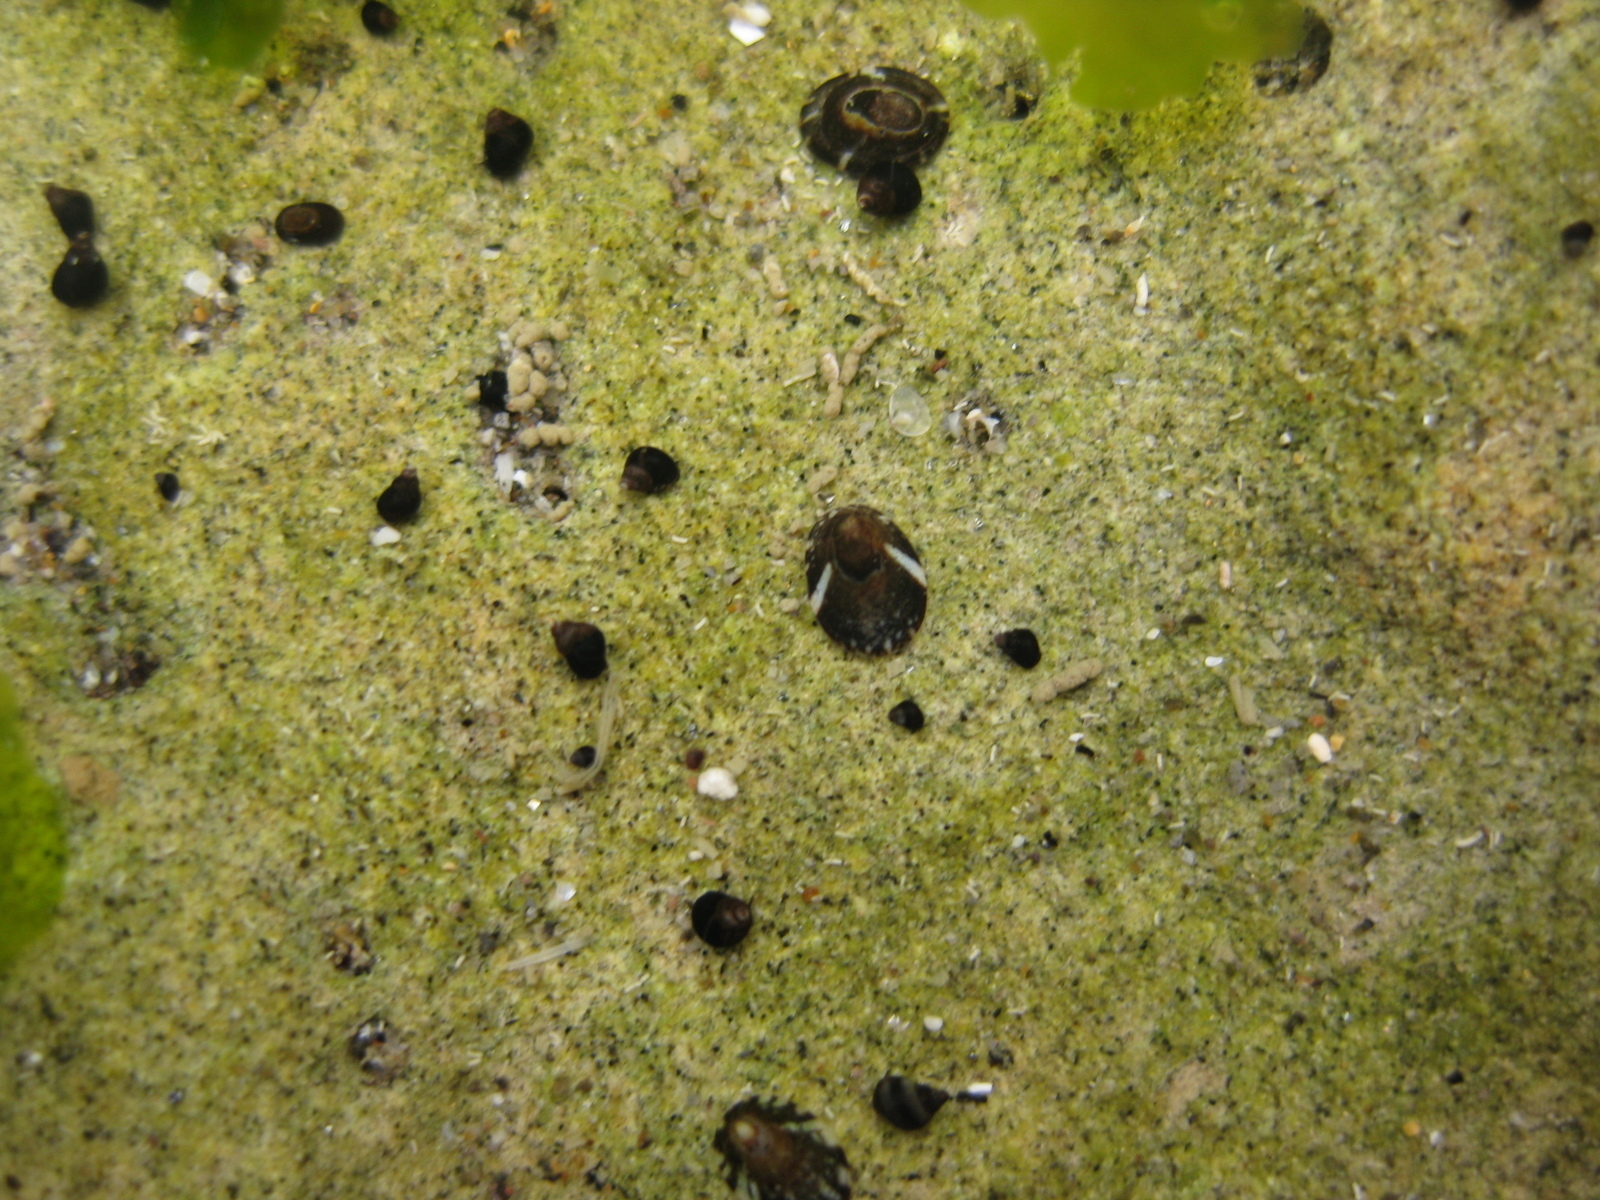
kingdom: Animalia
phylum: Mollusca
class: Gastropoda
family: Lottiidae
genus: Notoacmea
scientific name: Notoacmea parviconoidea
